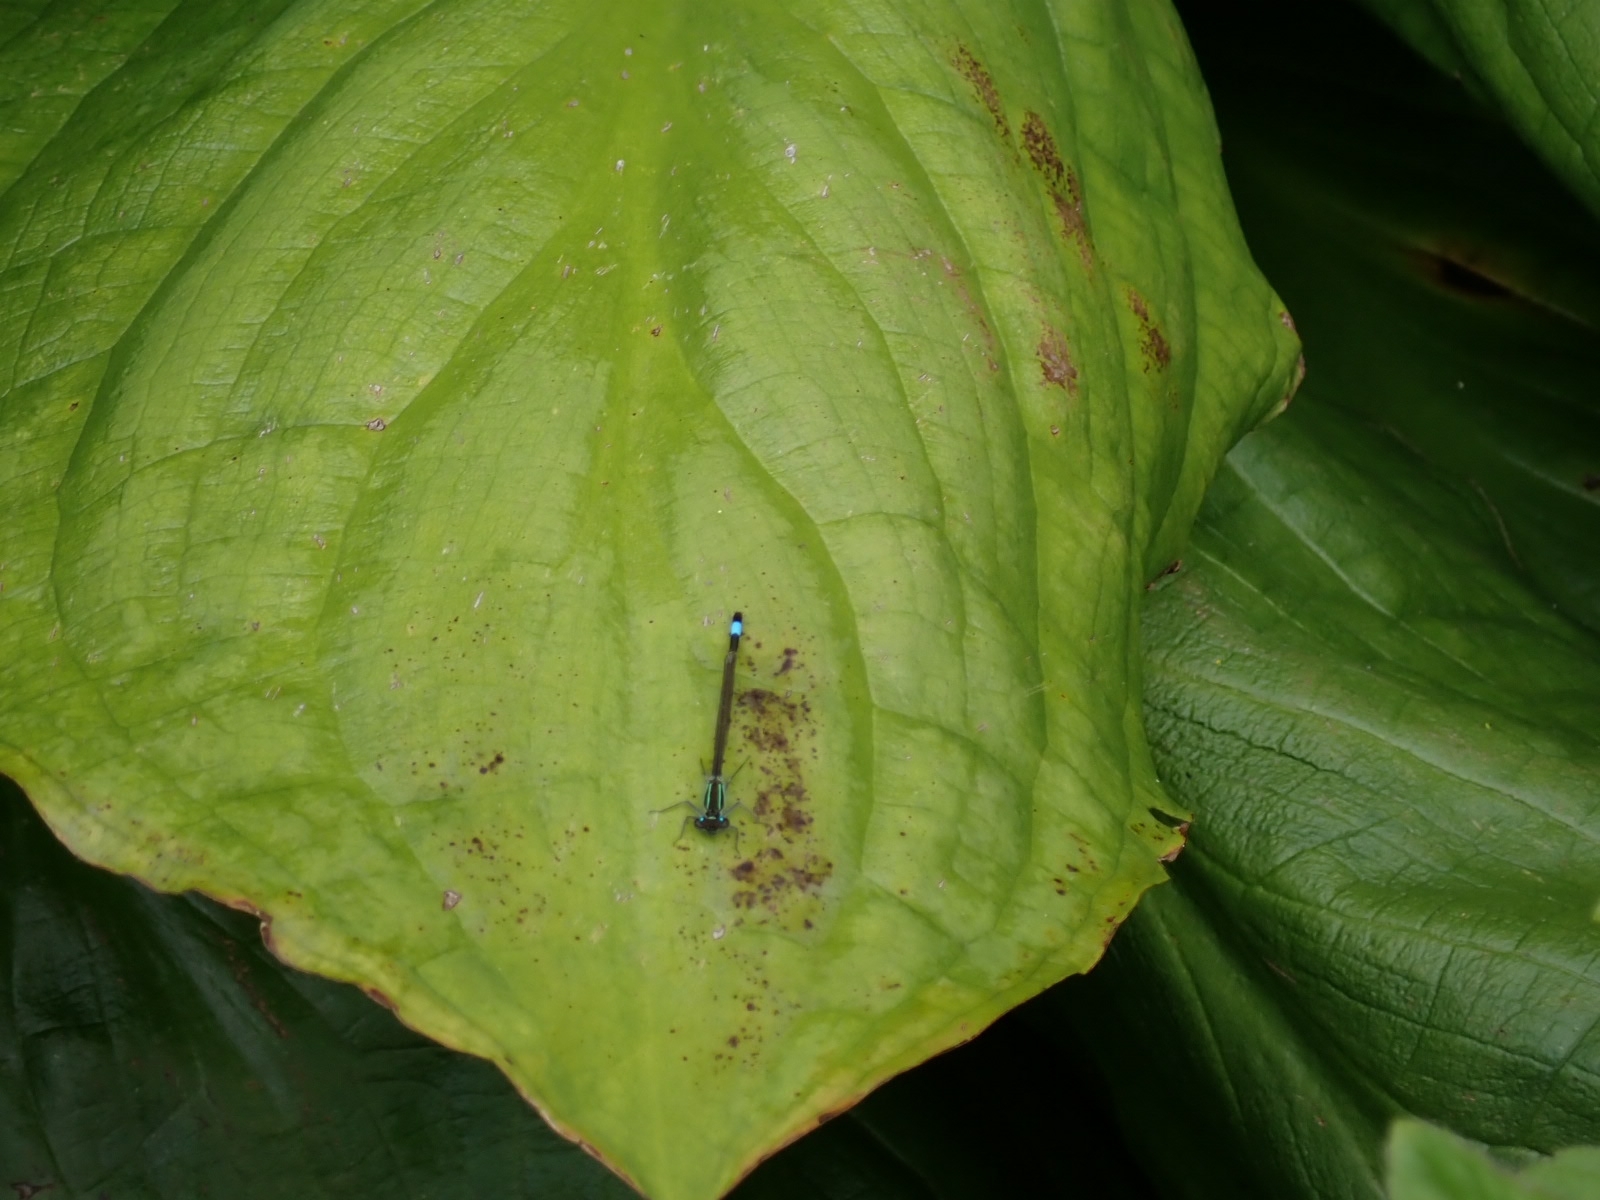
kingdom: Animalia
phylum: Arthropoda
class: Insecta
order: Odonata
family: Coenagrionidae
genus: Ischnura
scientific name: Ischnura elegans
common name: Blue-tailed damselfly
